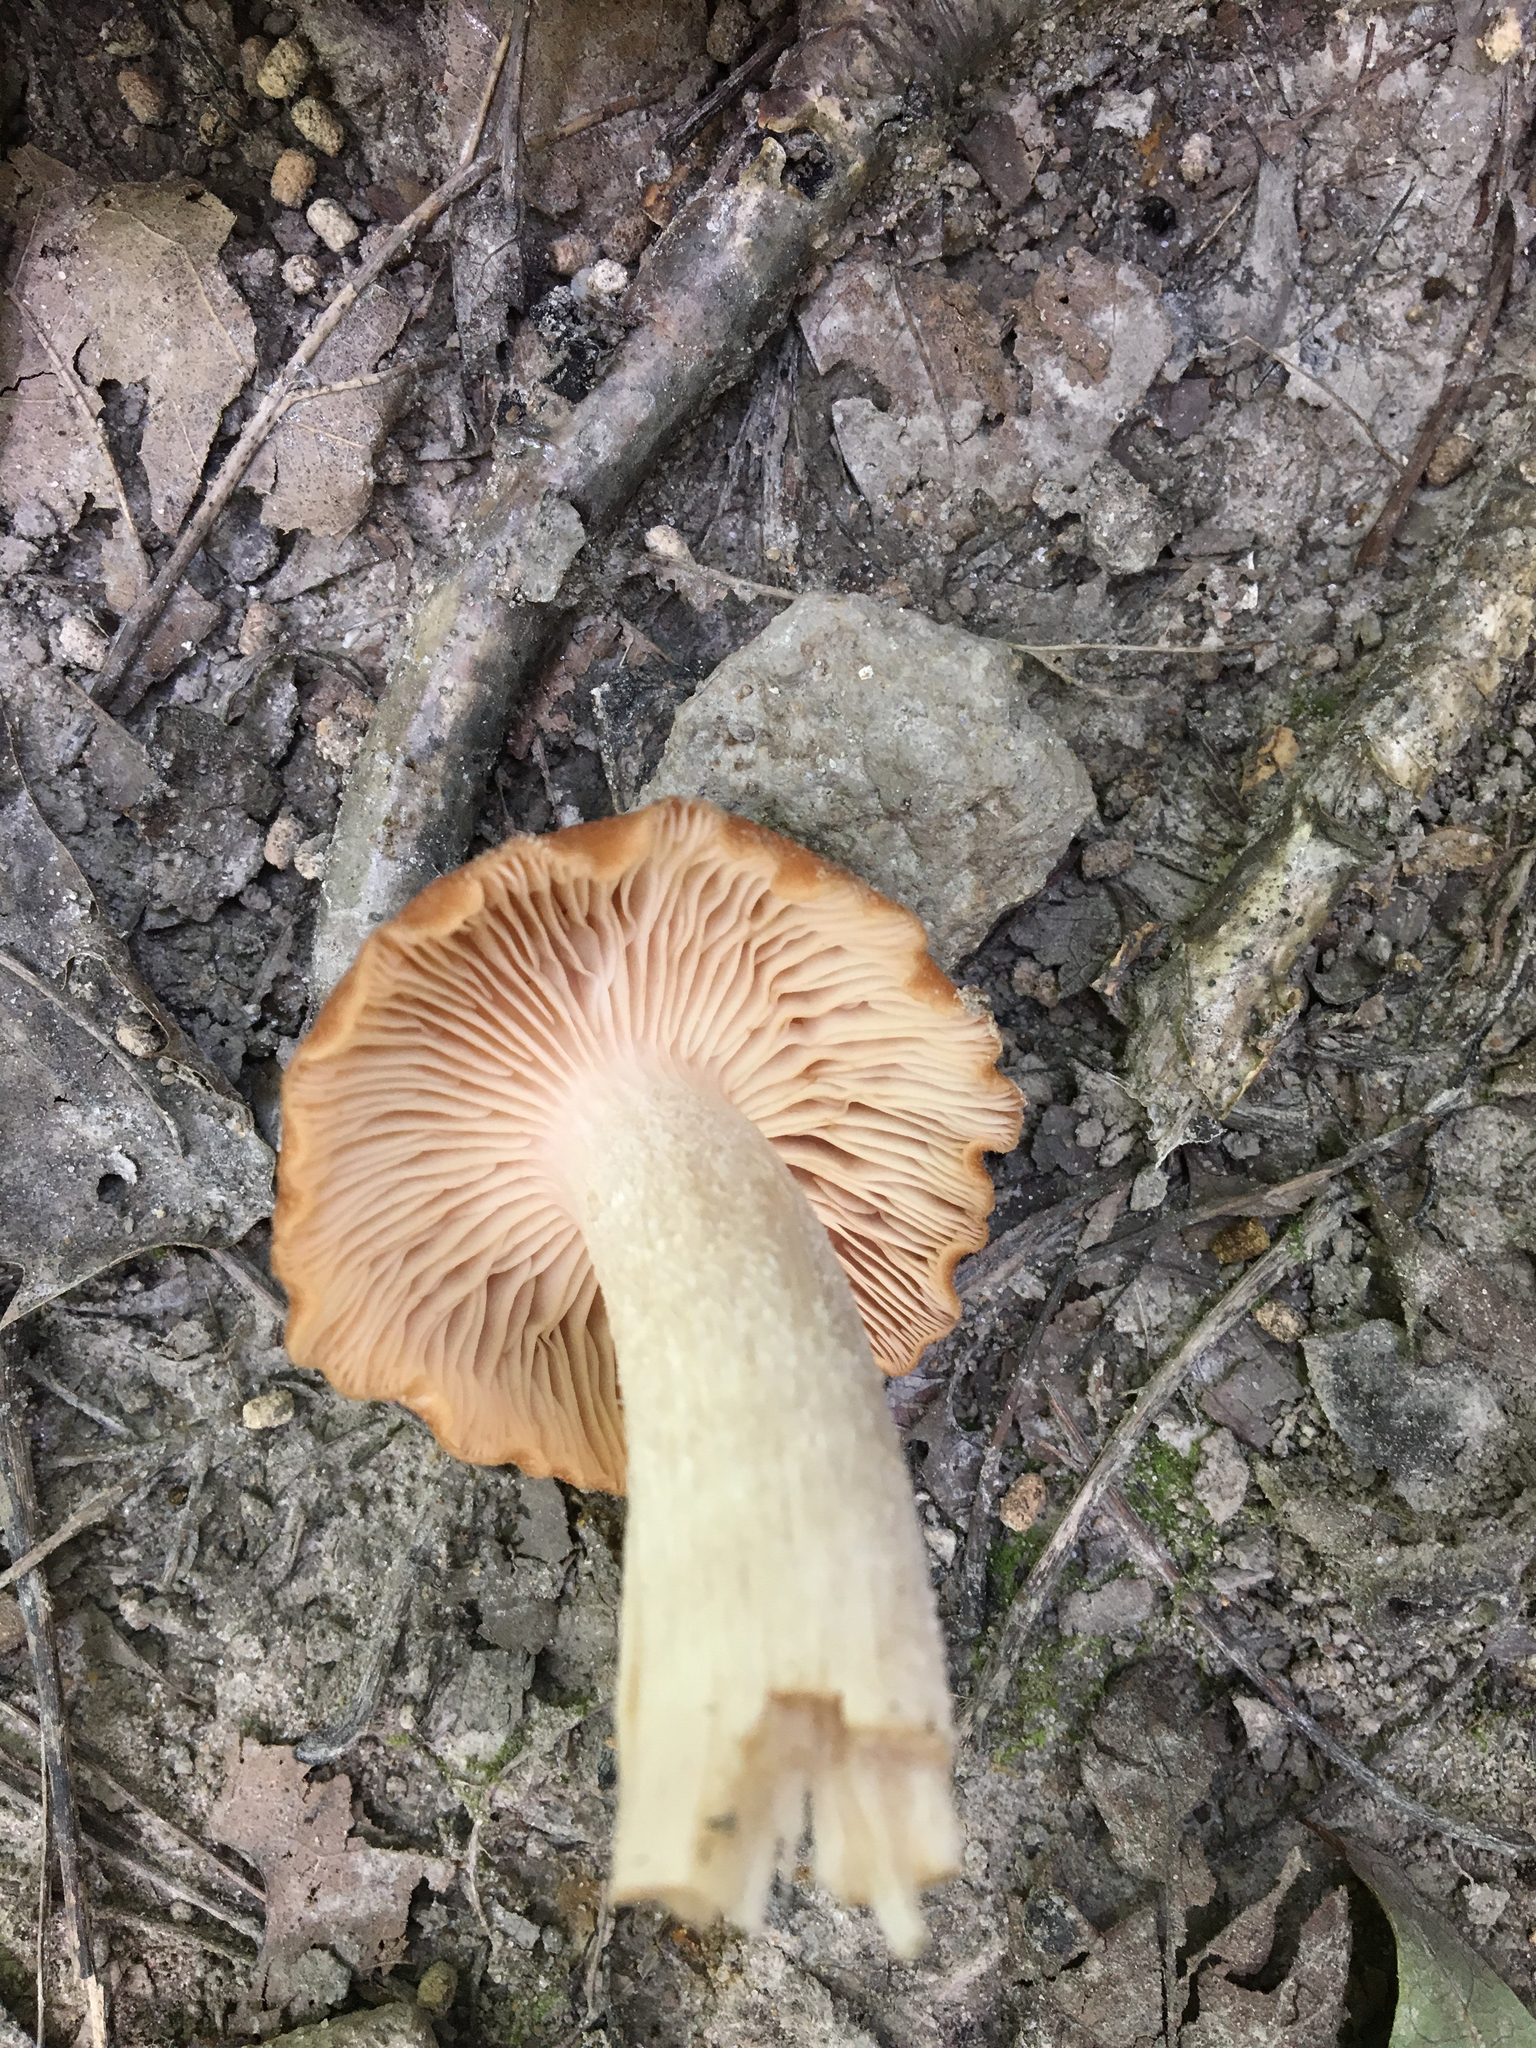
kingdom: Fungi
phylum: Basidiomycota
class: Agaricomycetes
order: Agaricales
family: Physalacriaceae
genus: Desarmillaria
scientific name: Desarmillaria caespitosa
